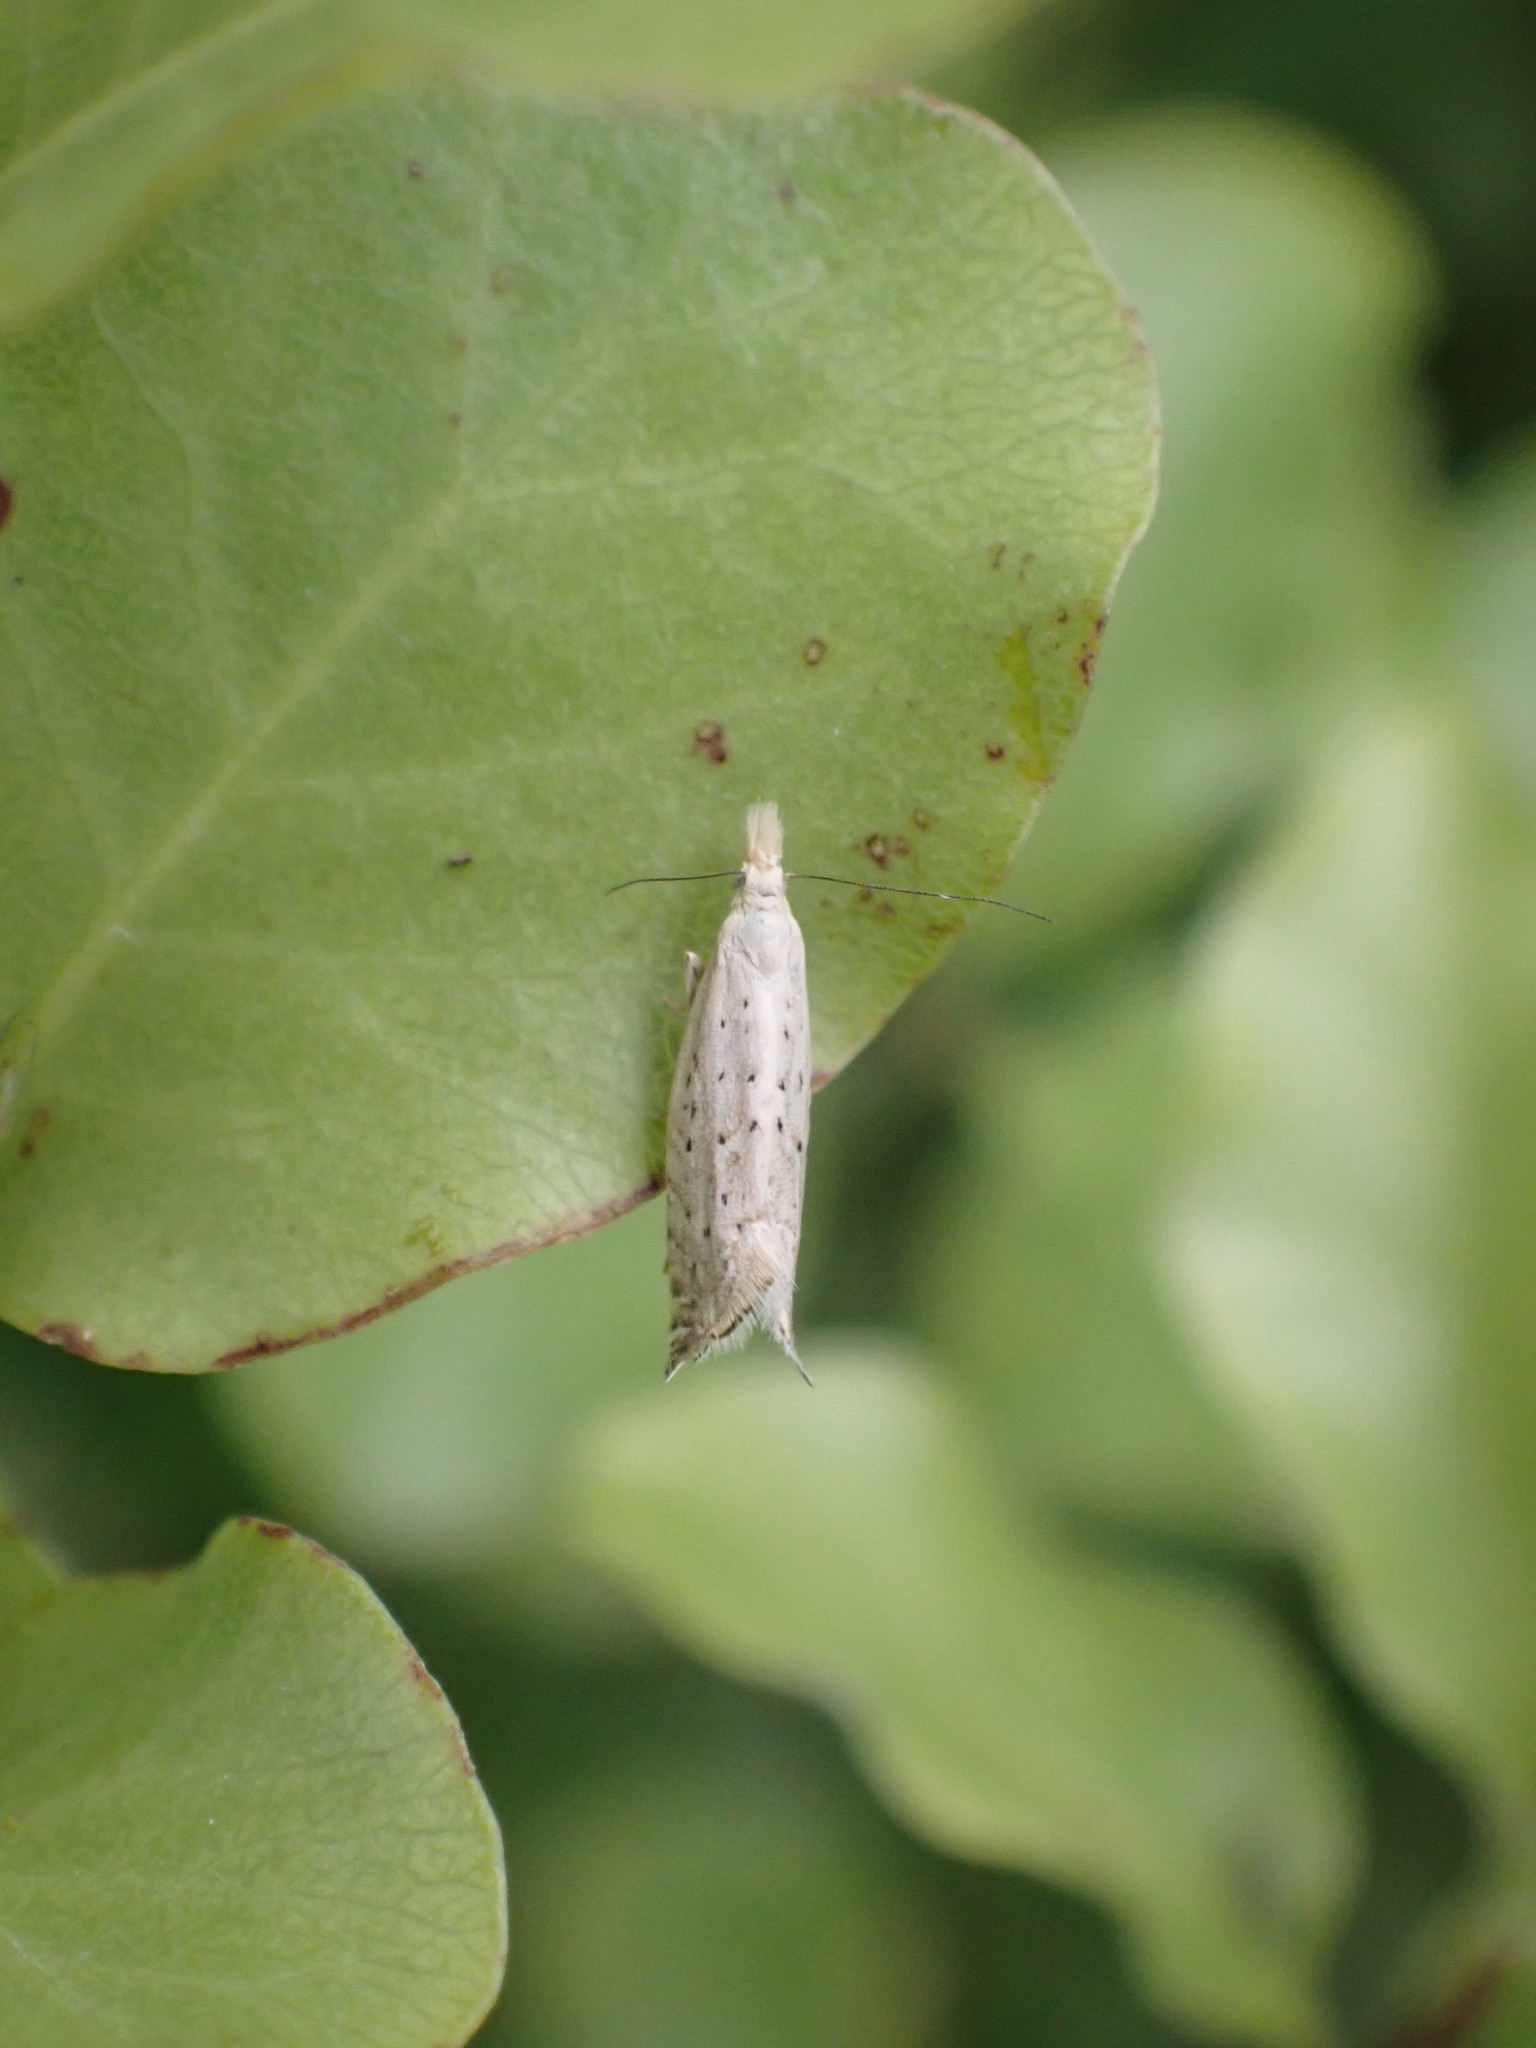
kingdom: Animalia
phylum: Arthropoda
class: Insecta
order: Lepidoptera
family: Glyphipterigidae
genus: Glyphipterix
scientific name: Glyphipterix achlyoessa
